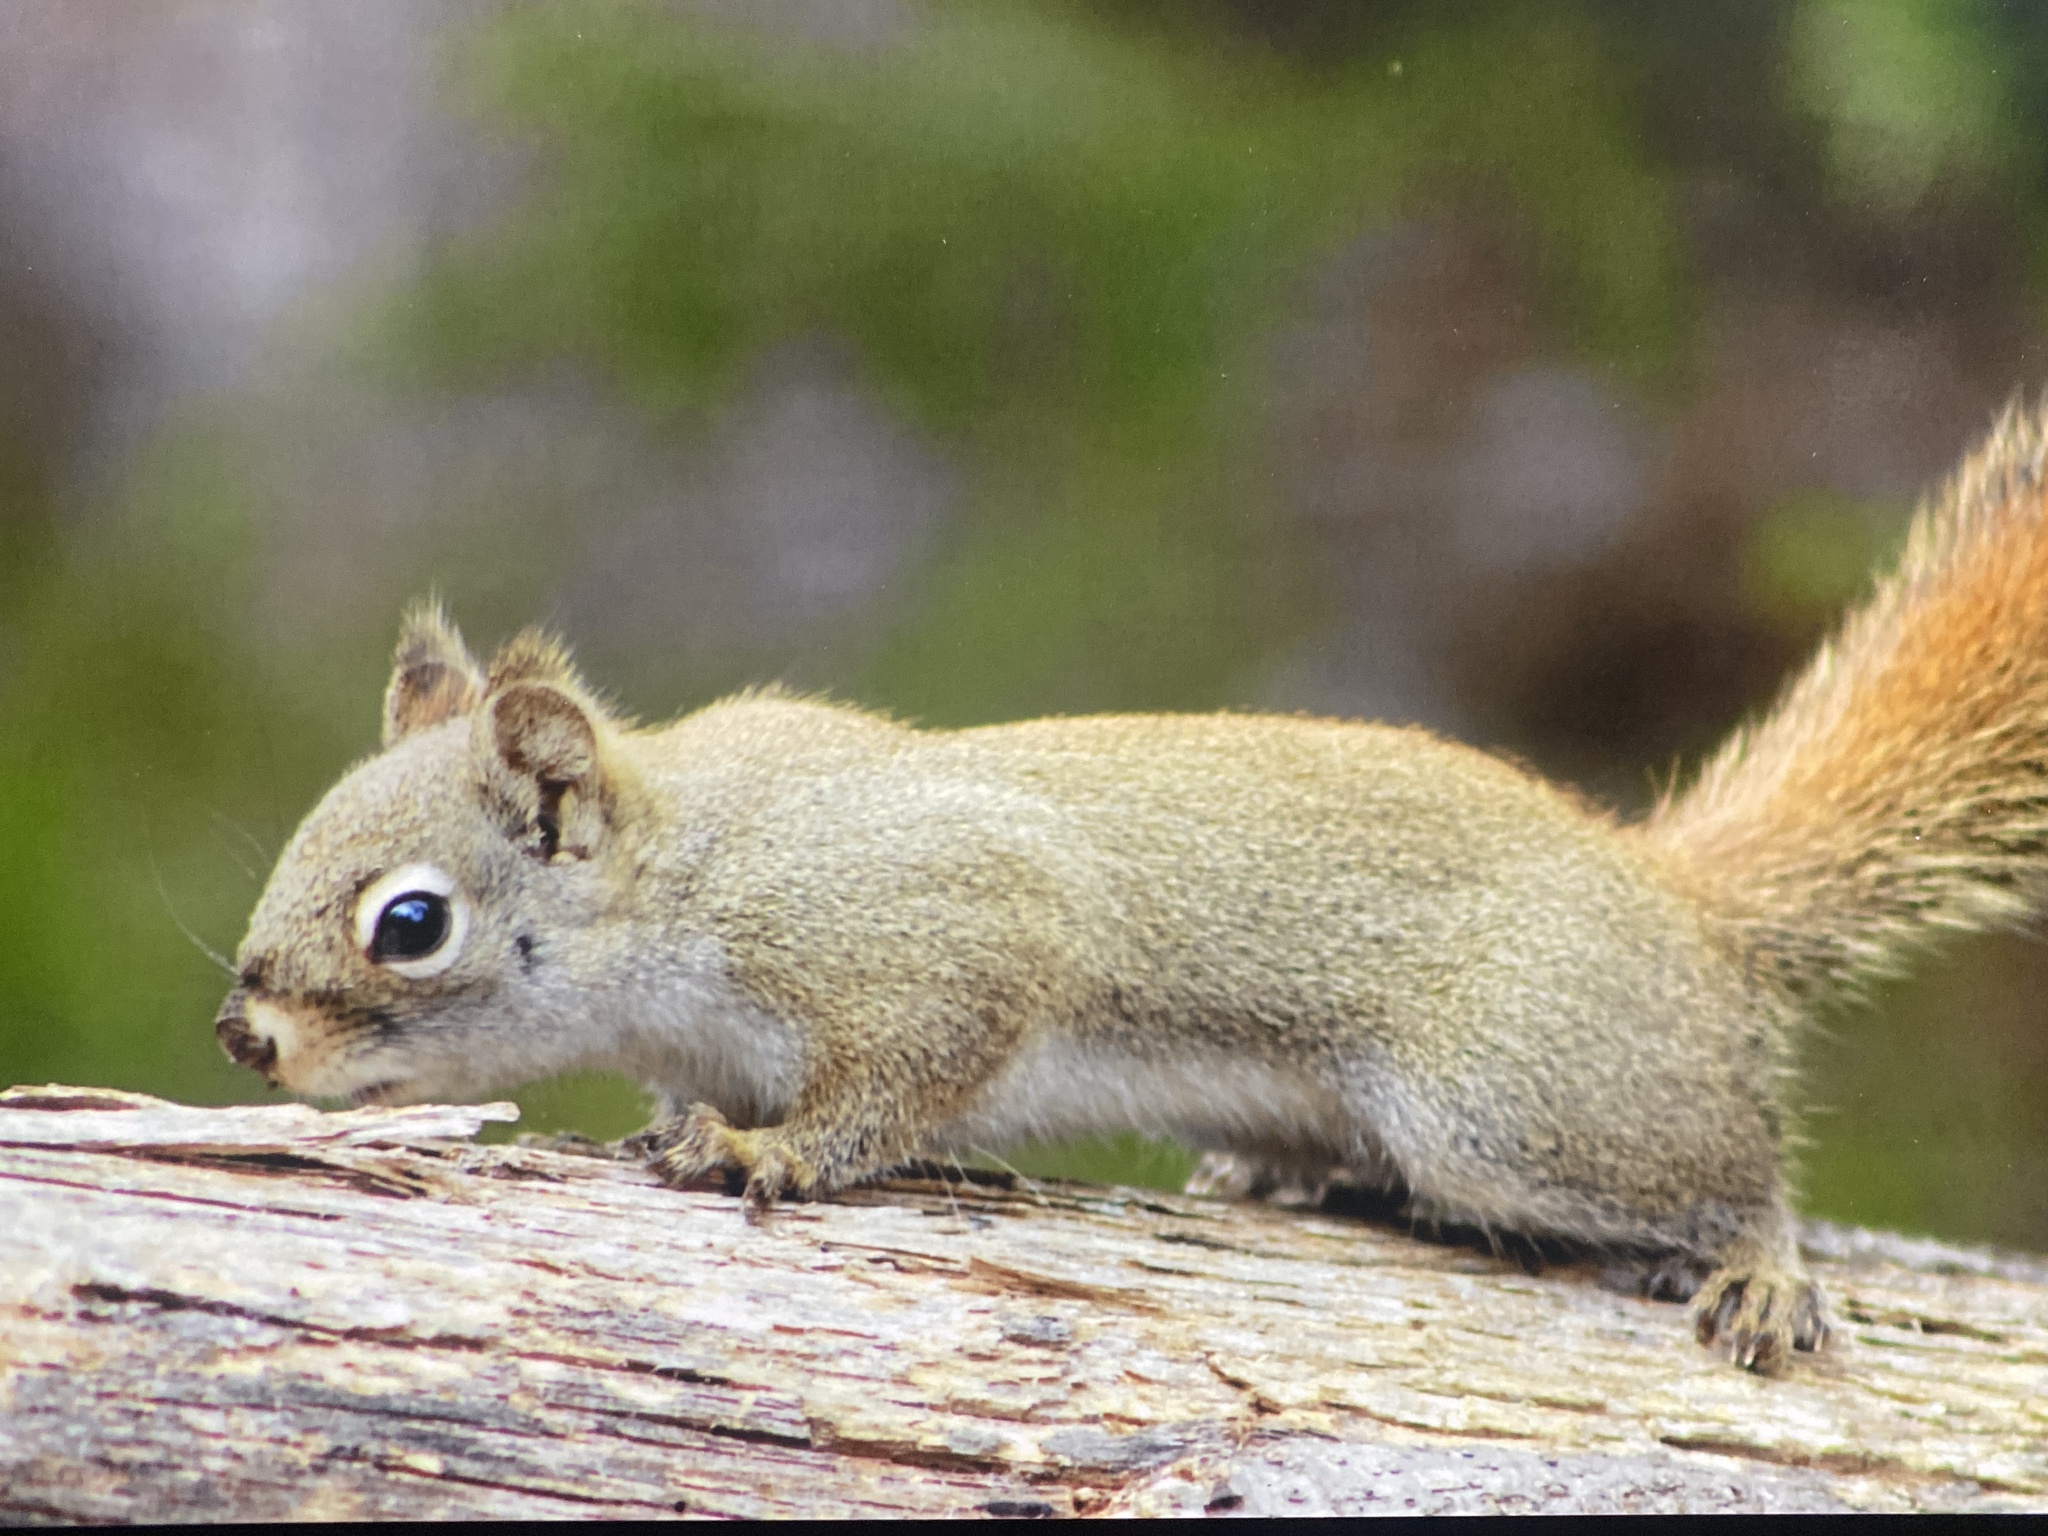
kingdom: Animalia
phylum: Chordata
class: Mammalia
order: Rodentia
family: Sciuridae
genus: Tamiasciurus
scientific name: Tamiasciurus hudsonicus
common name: Red squirrel
